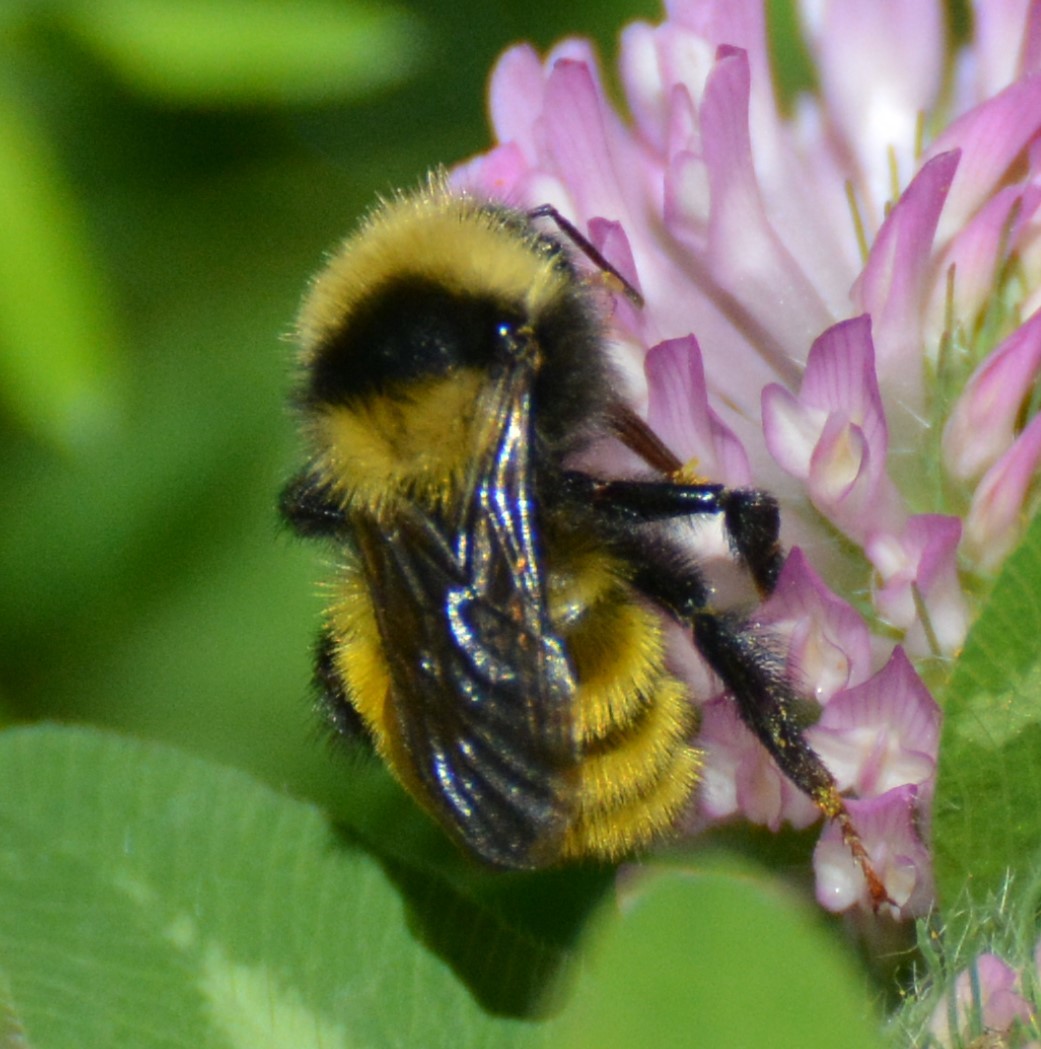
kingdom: Animalia
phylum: Arthropoda
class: Insecta
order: Hymenoptera
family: Apidae
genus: Bombus
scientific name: Bombus borealis
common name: Northern amber bumble bee
